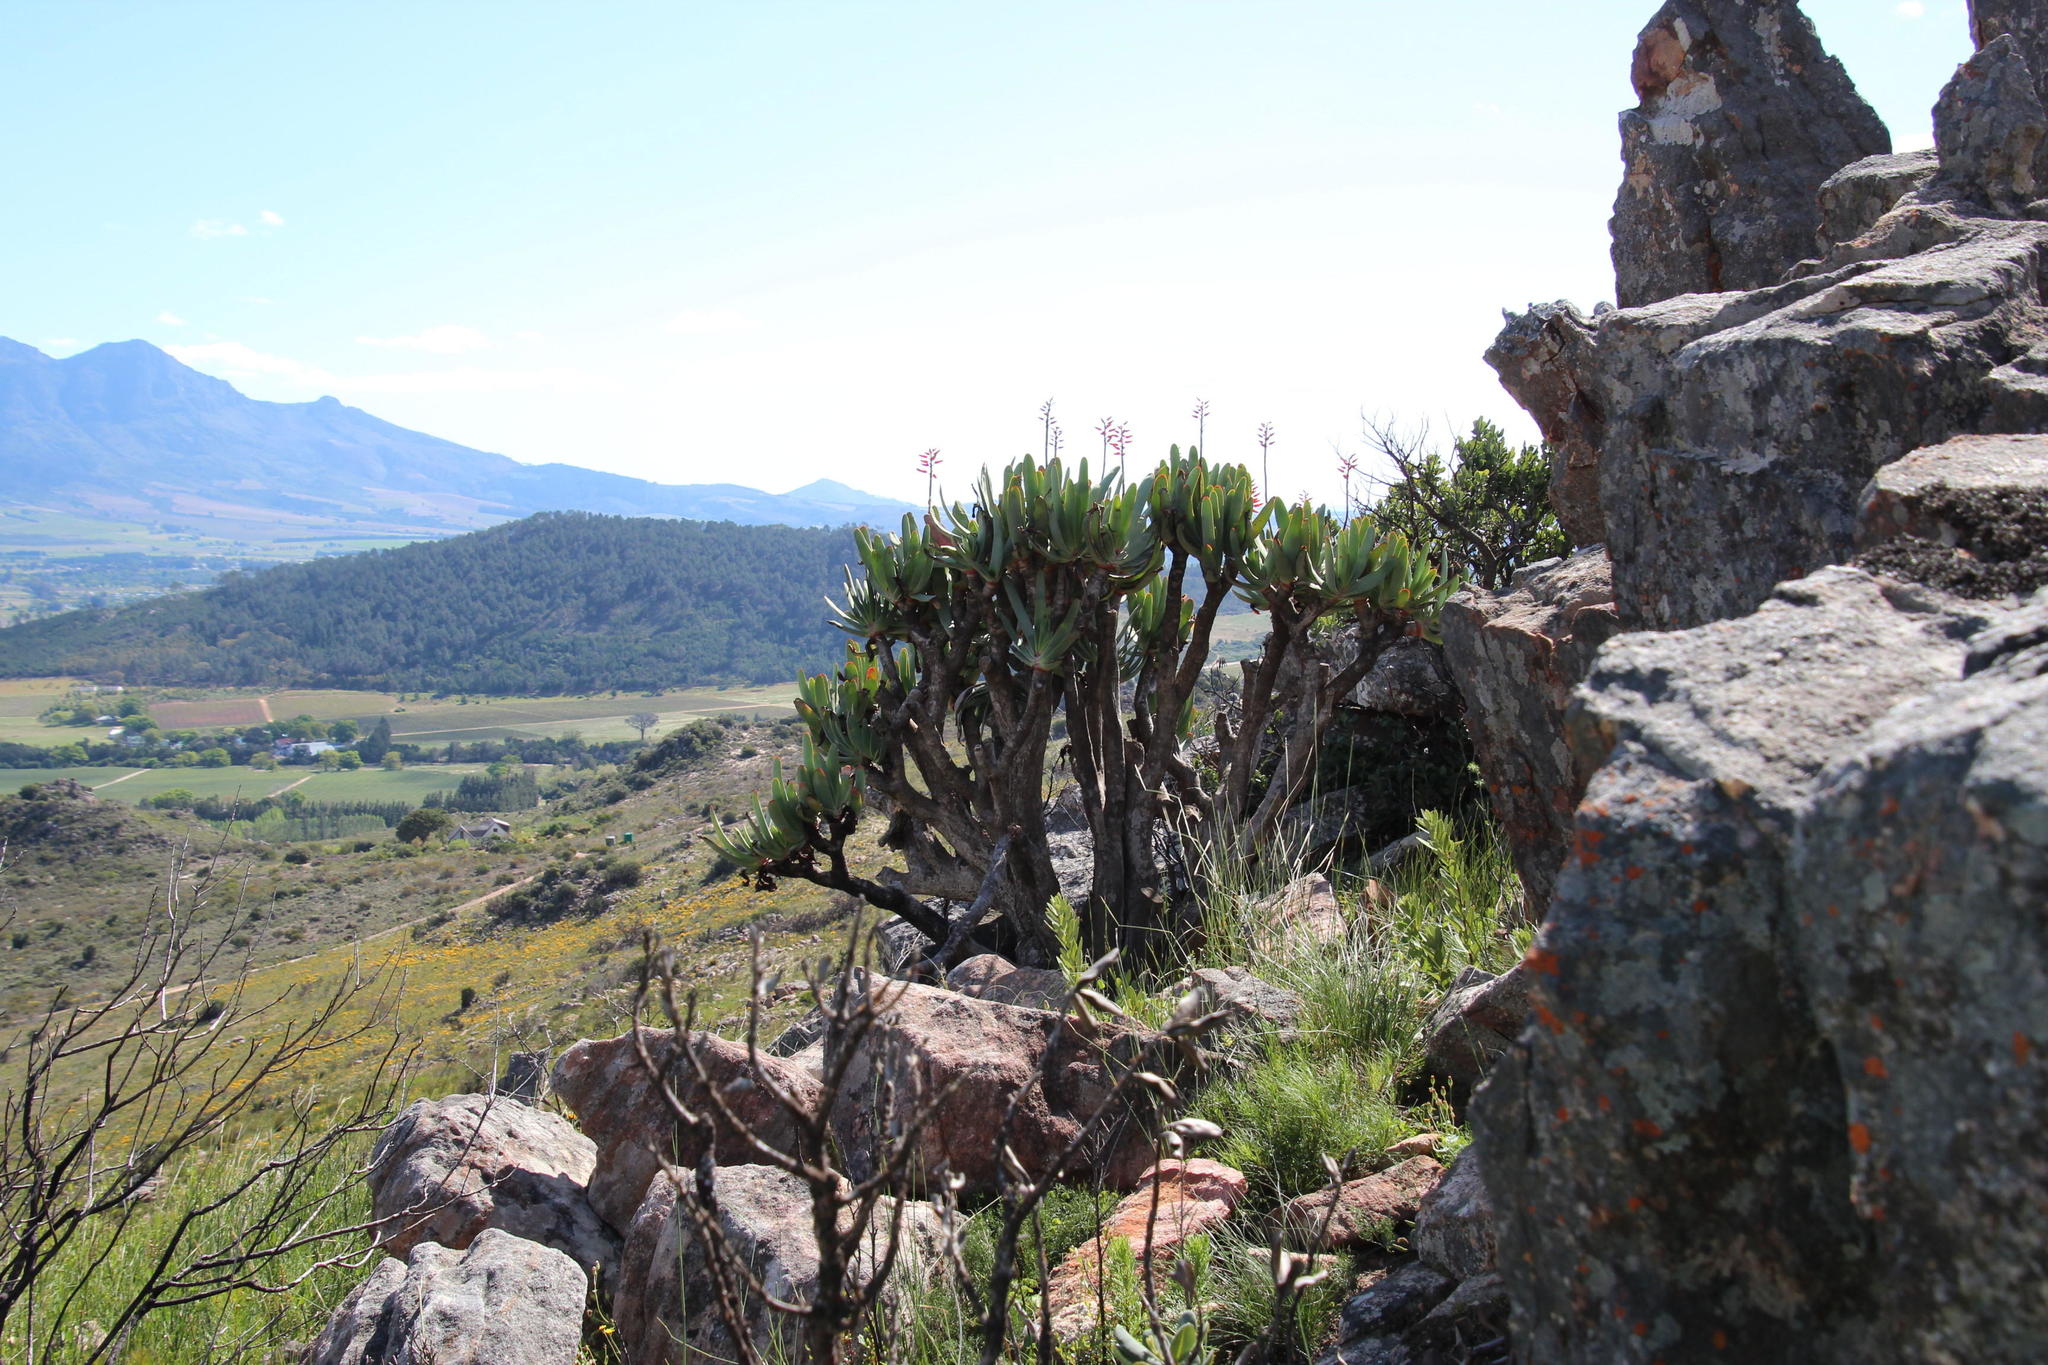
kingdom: Plantae
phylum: Tracheophyta
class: Liliopsida
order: Asparagales
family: Asphodelaceae
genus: Kumara
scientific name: Kumara plicatilis
